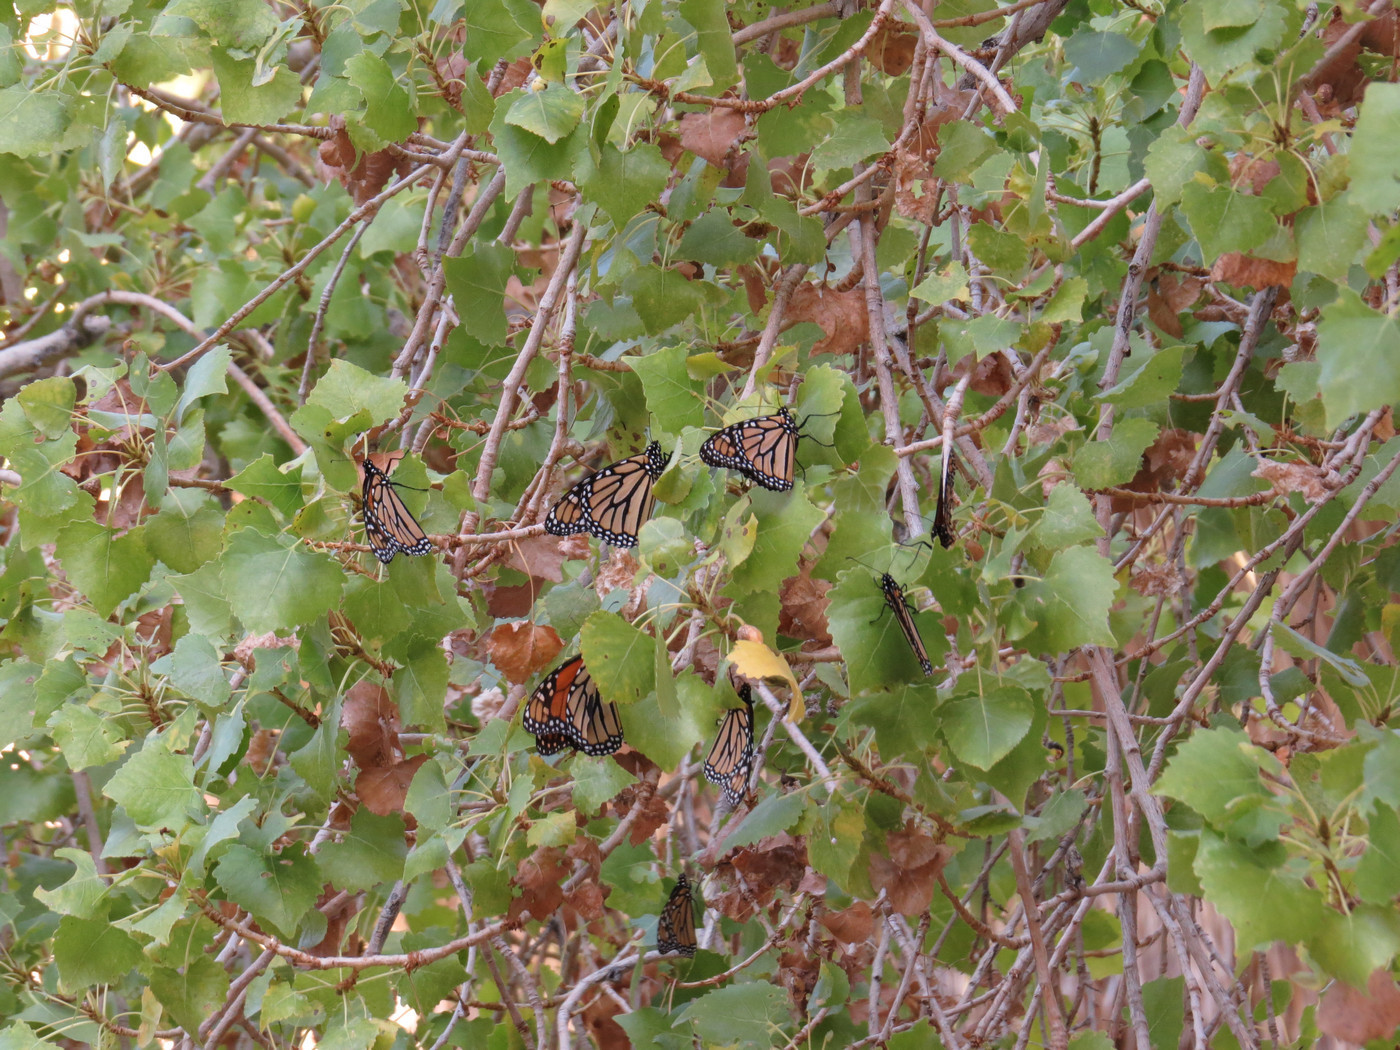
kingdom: Animalia
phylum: Arthropoda
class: Insecta
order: Lepidoptera
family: Nymphalidae
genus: Danaus
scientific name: Danaus plexippus
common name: Monarch
